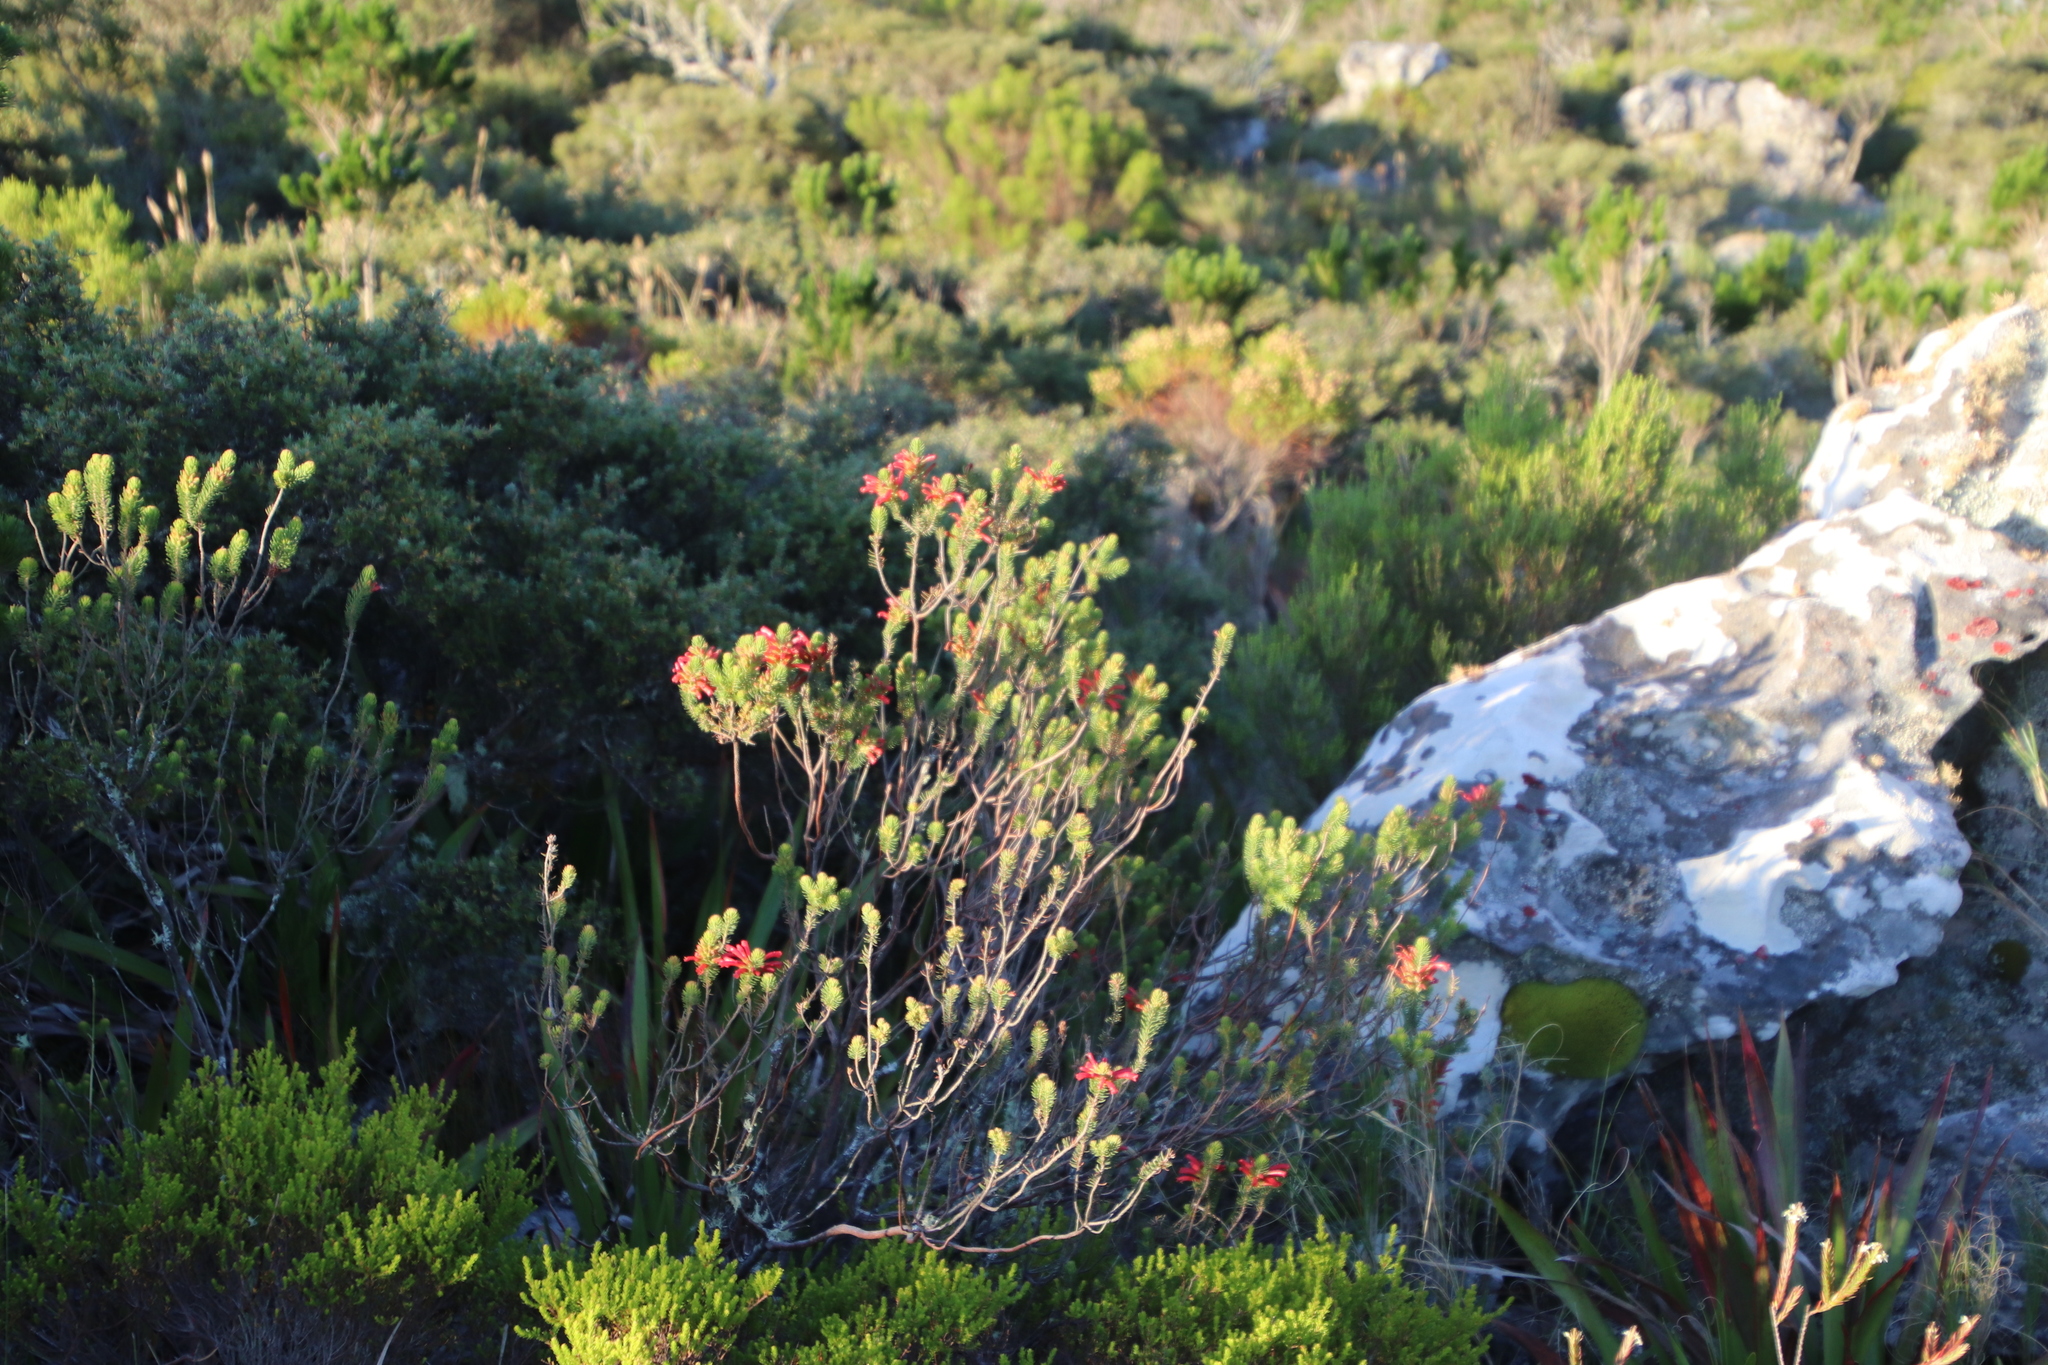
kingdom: Plantae
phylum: Tracheophyta
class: Magnoliopsida
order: Ericales
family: Ericaceae
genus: Erica
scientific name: Erica abietina
